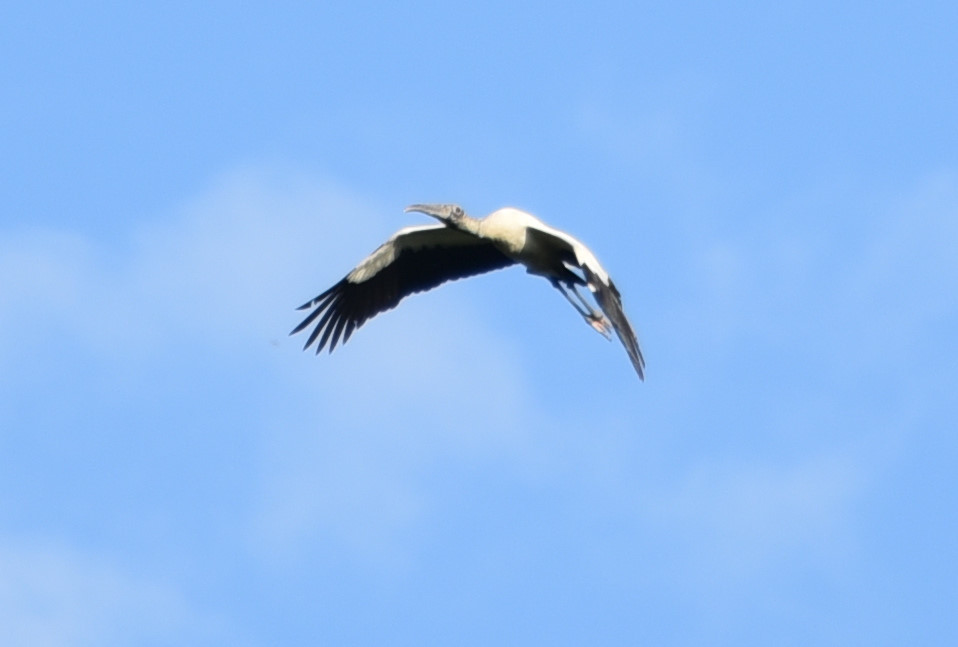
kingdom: Animalia
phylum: Chordata
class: Aves
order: Ciconiiformes
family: Ciconiidae
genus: Mycteria
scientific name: Mycteria americana
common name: Wood stork
